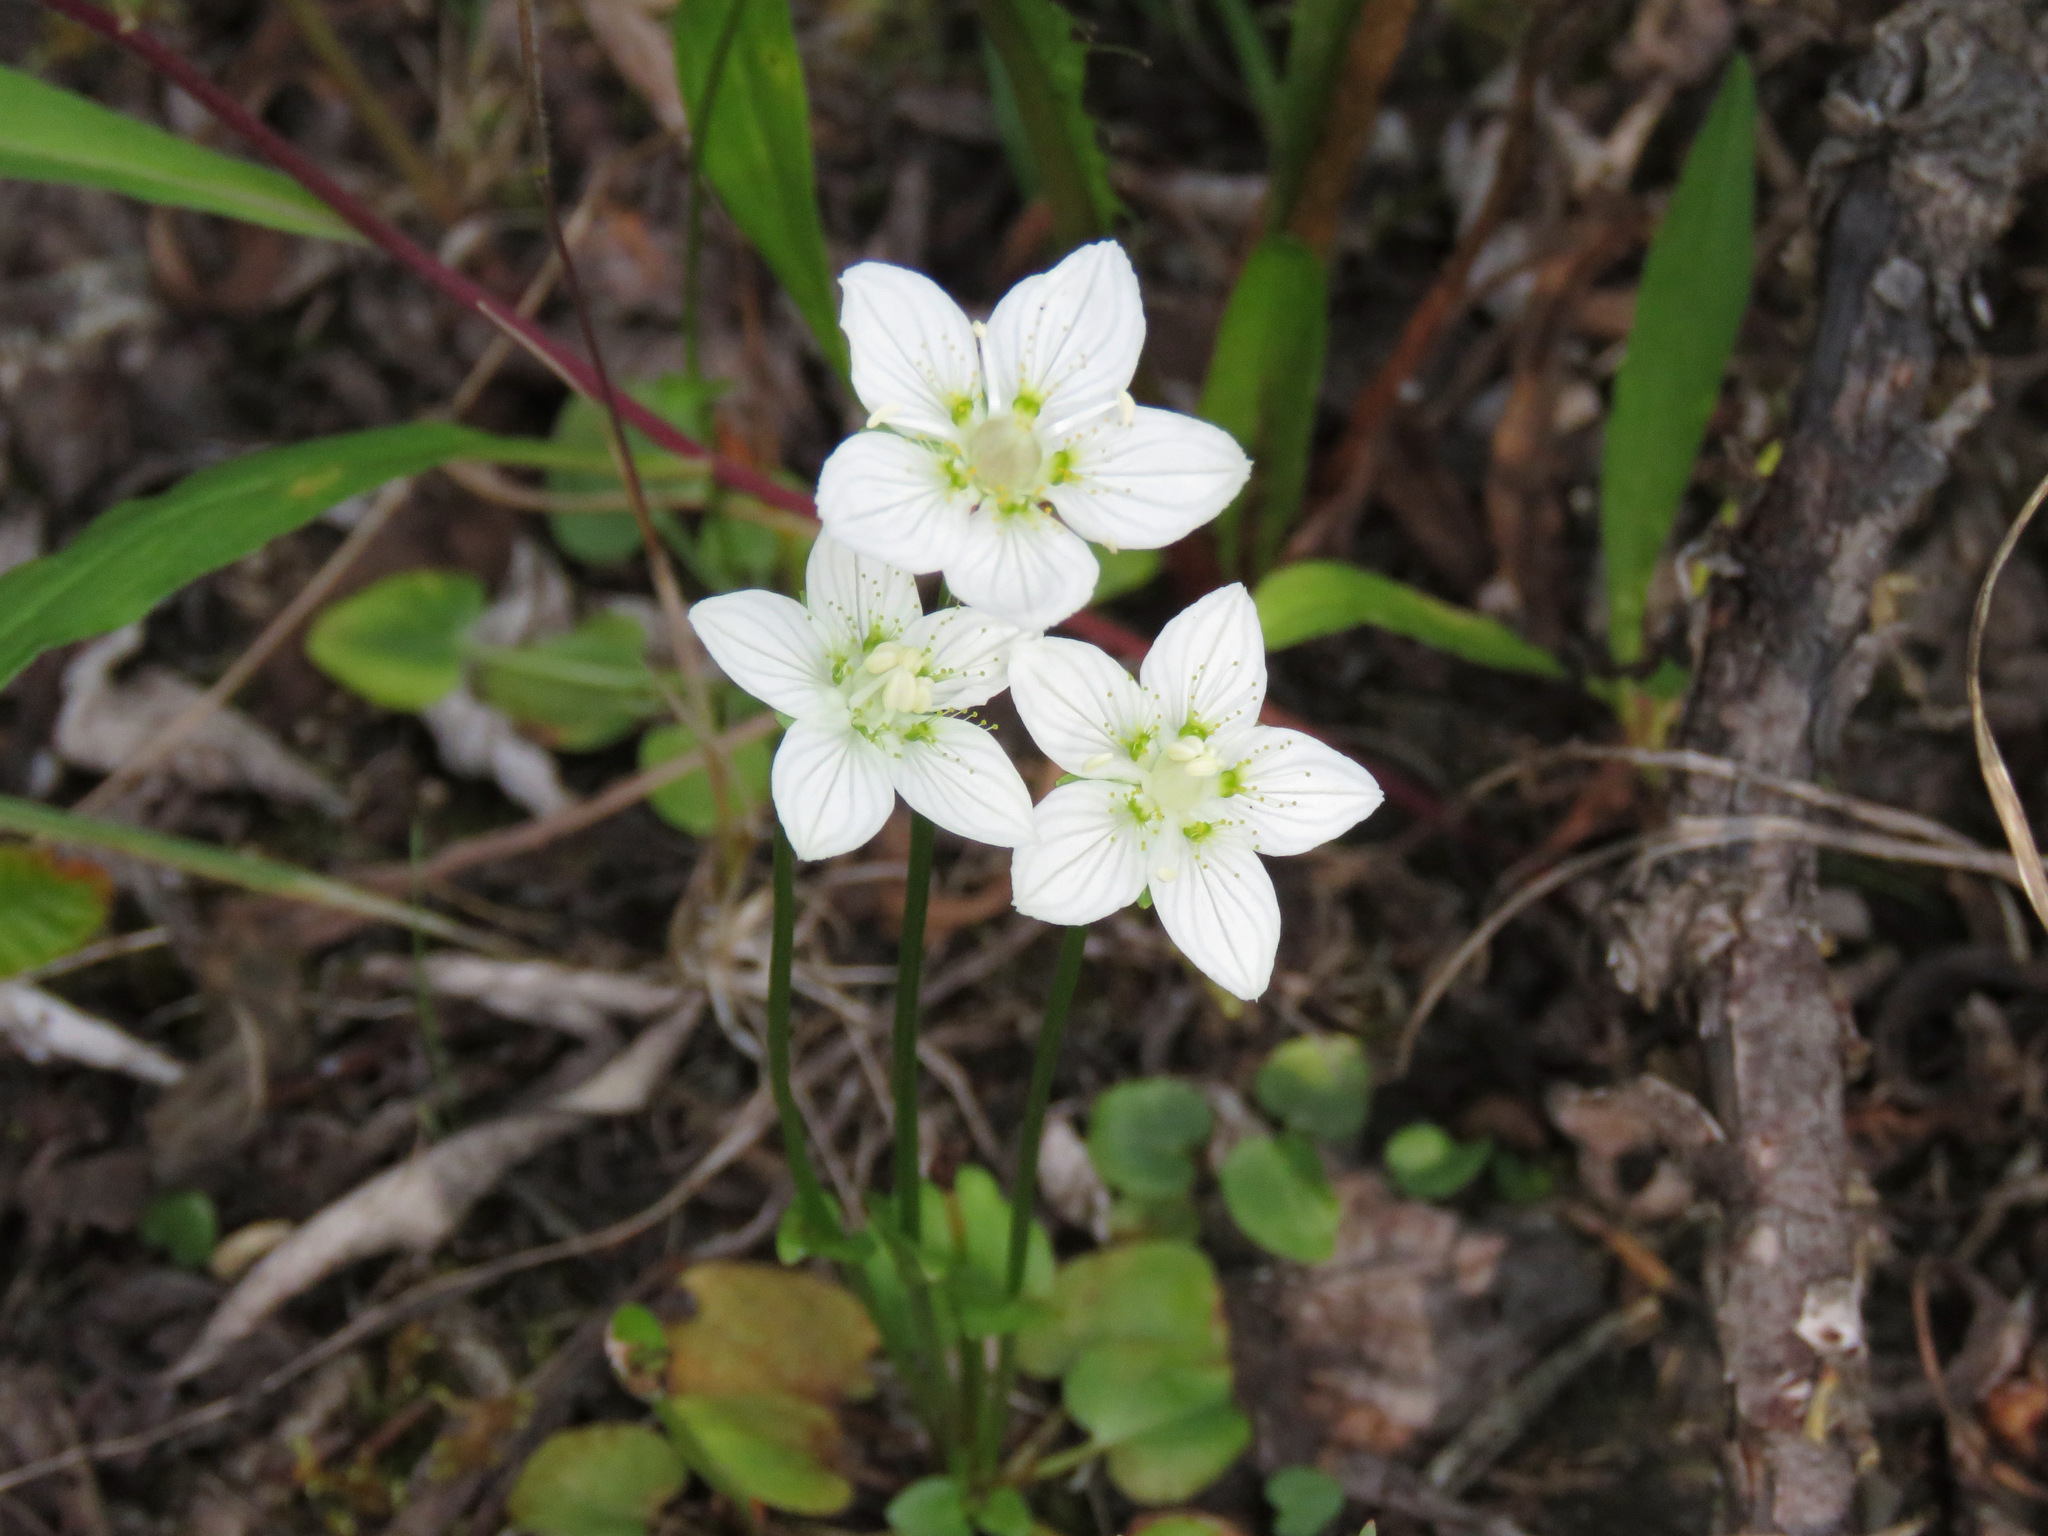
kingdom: Plantae
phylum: Tracheophyta
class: Magnoliopsida
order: Celastrales
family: Parnassiaceae
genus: Parnassia
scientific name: Parnassia palustris
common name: Grass-of-parnassus
